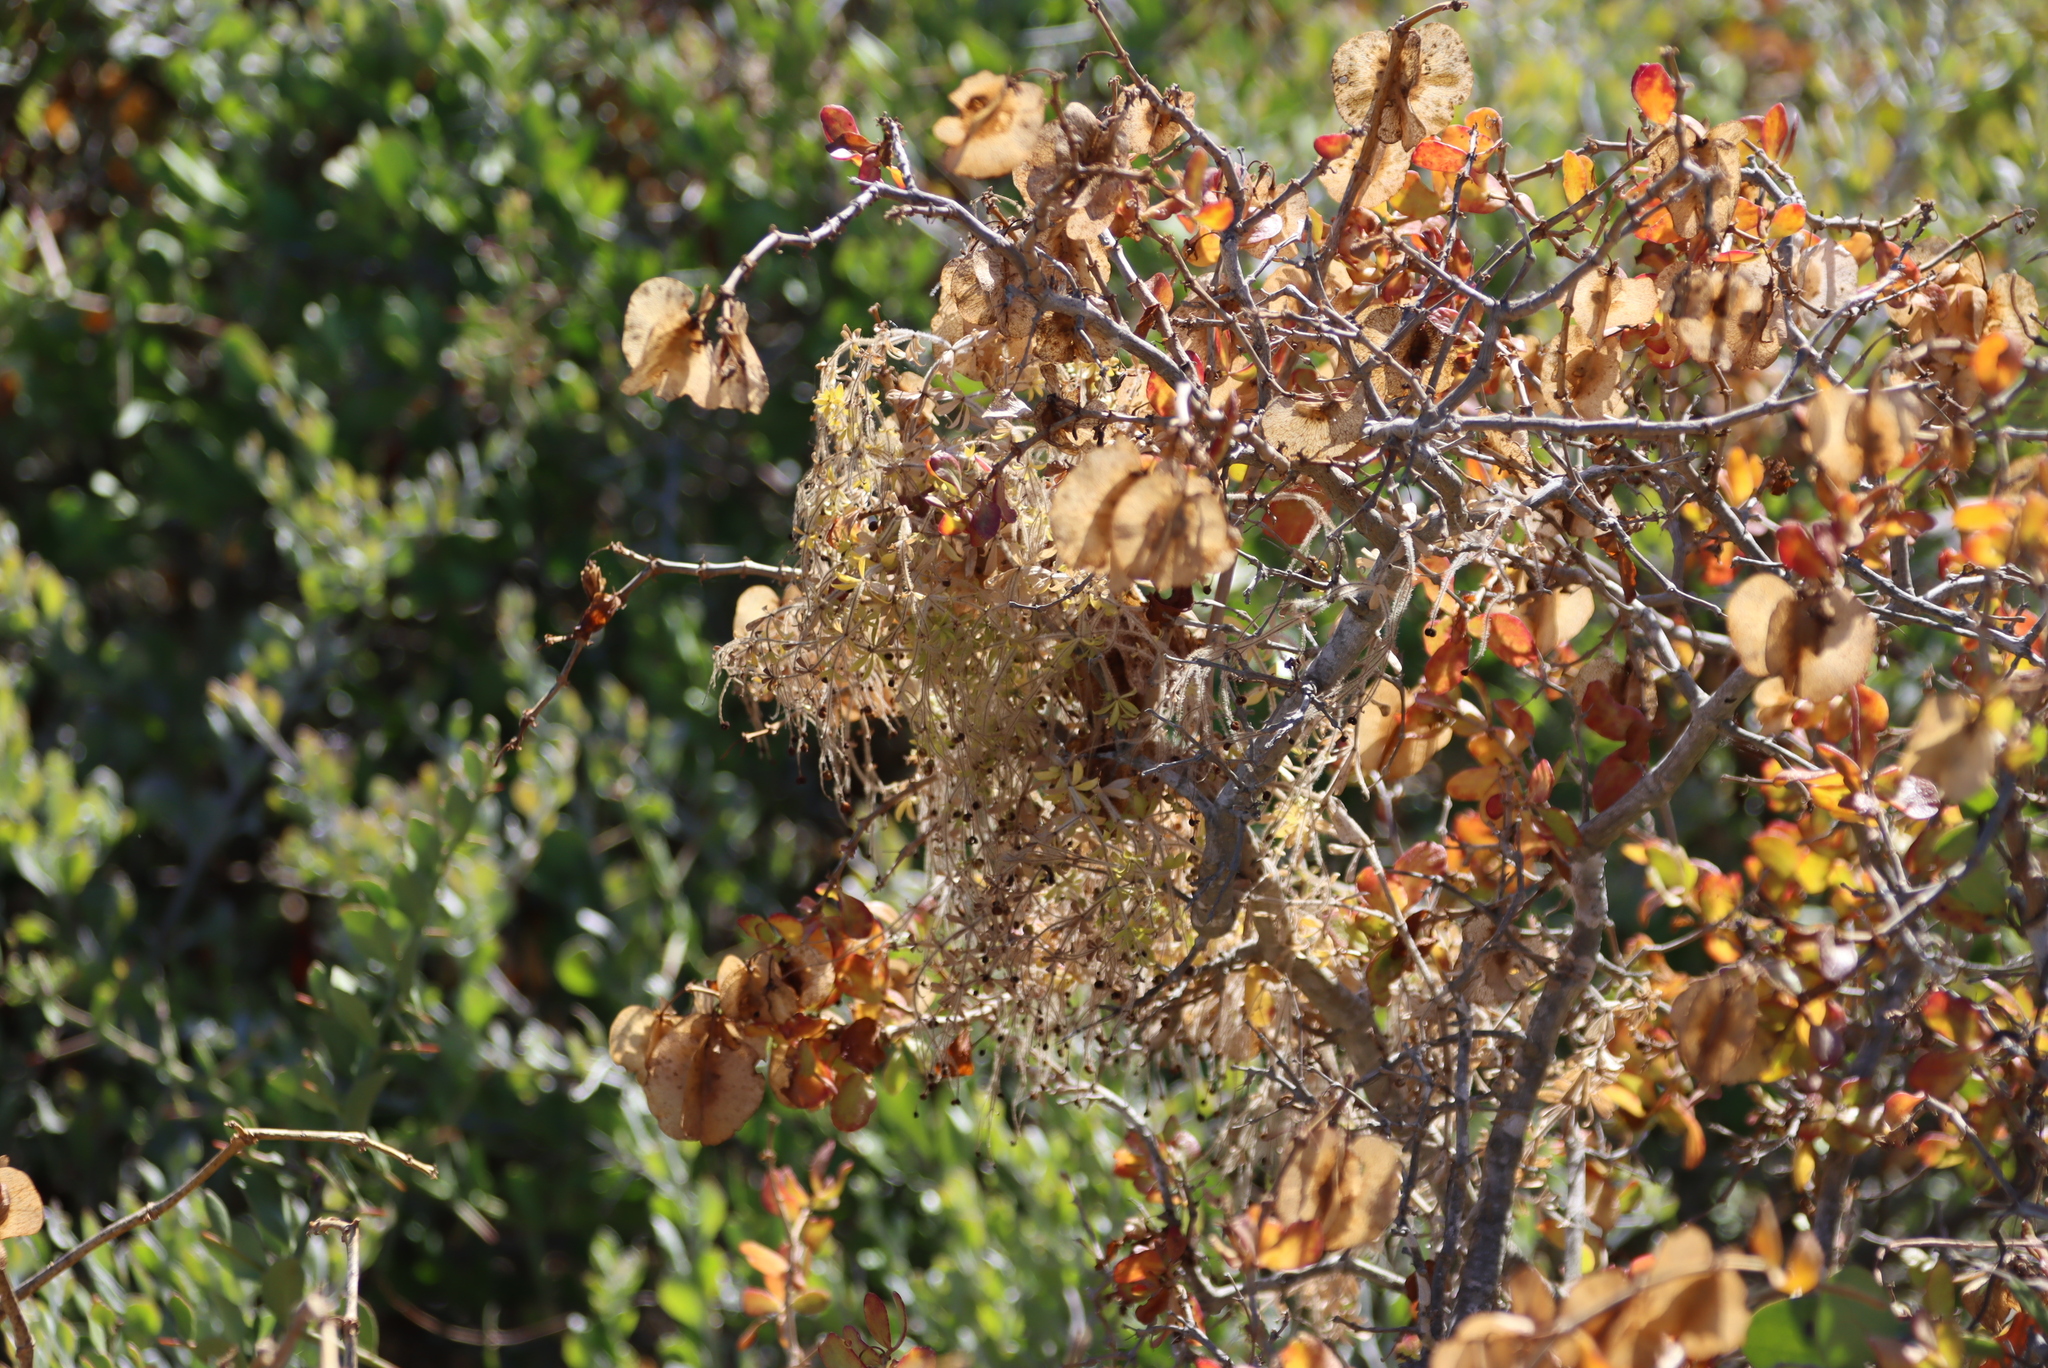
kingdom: Plantae
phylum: Tracheophyta
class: Magnoliopsida
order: Zygophyllales
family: Zygophyllaceae
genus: Roepera
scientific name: Roepera morgsana
